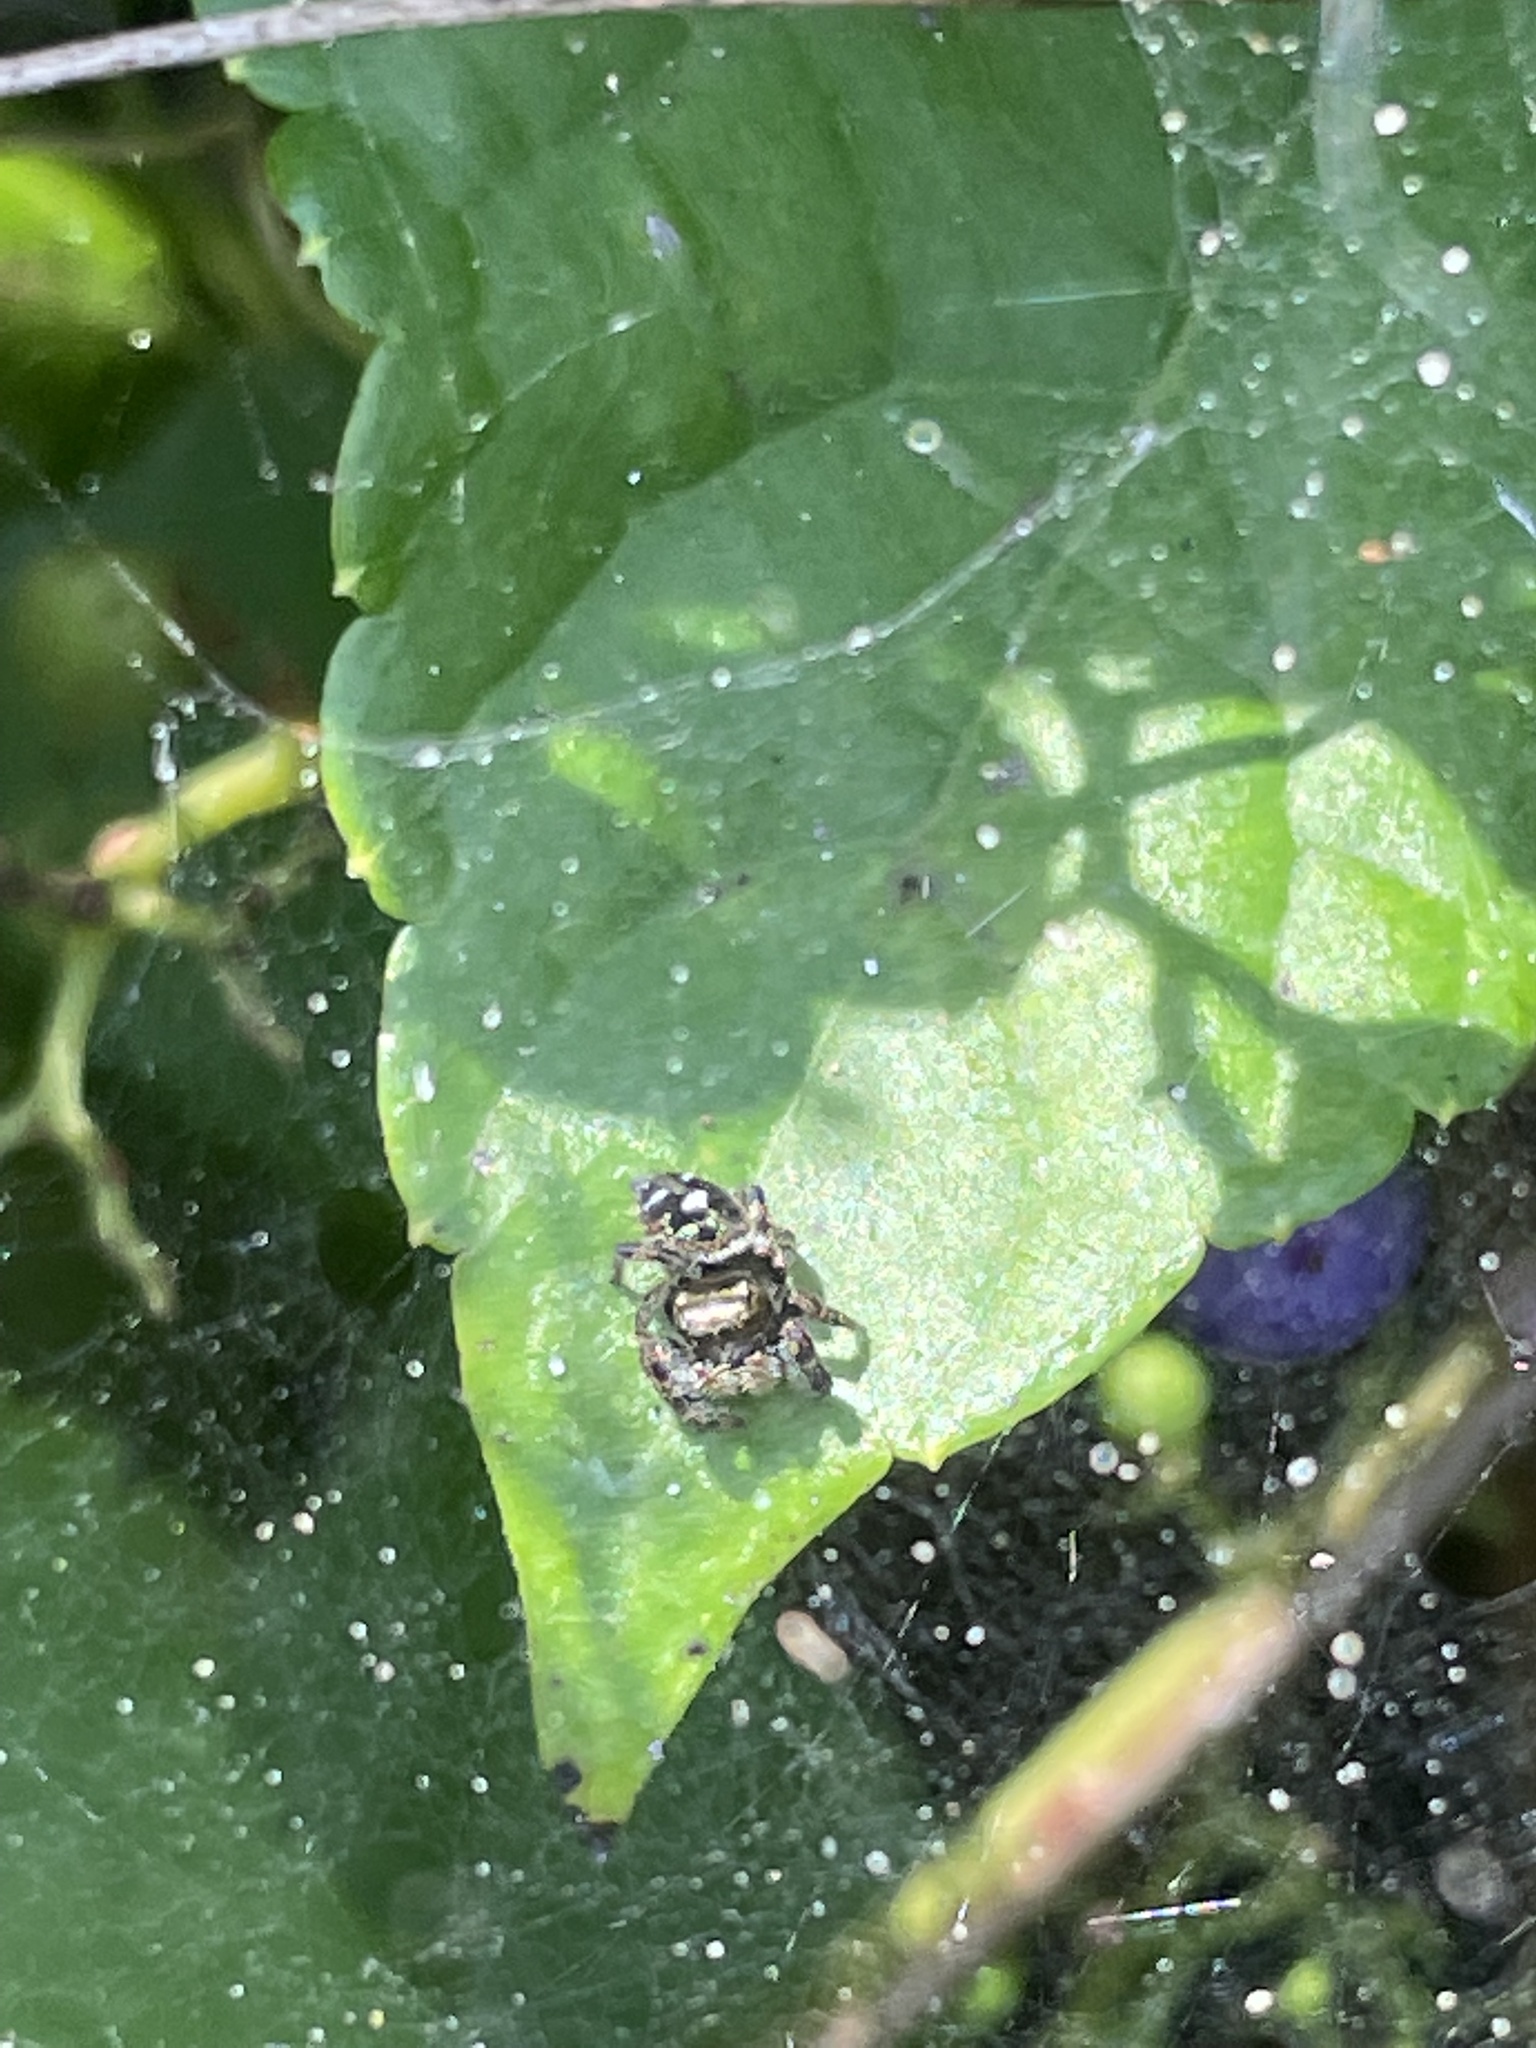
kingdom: Animalia
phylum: Arthropoda
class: Arachnida
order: Araneae
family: Salticidae
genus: Phidippus
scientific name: Phidippus audax
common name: Bold jumper
